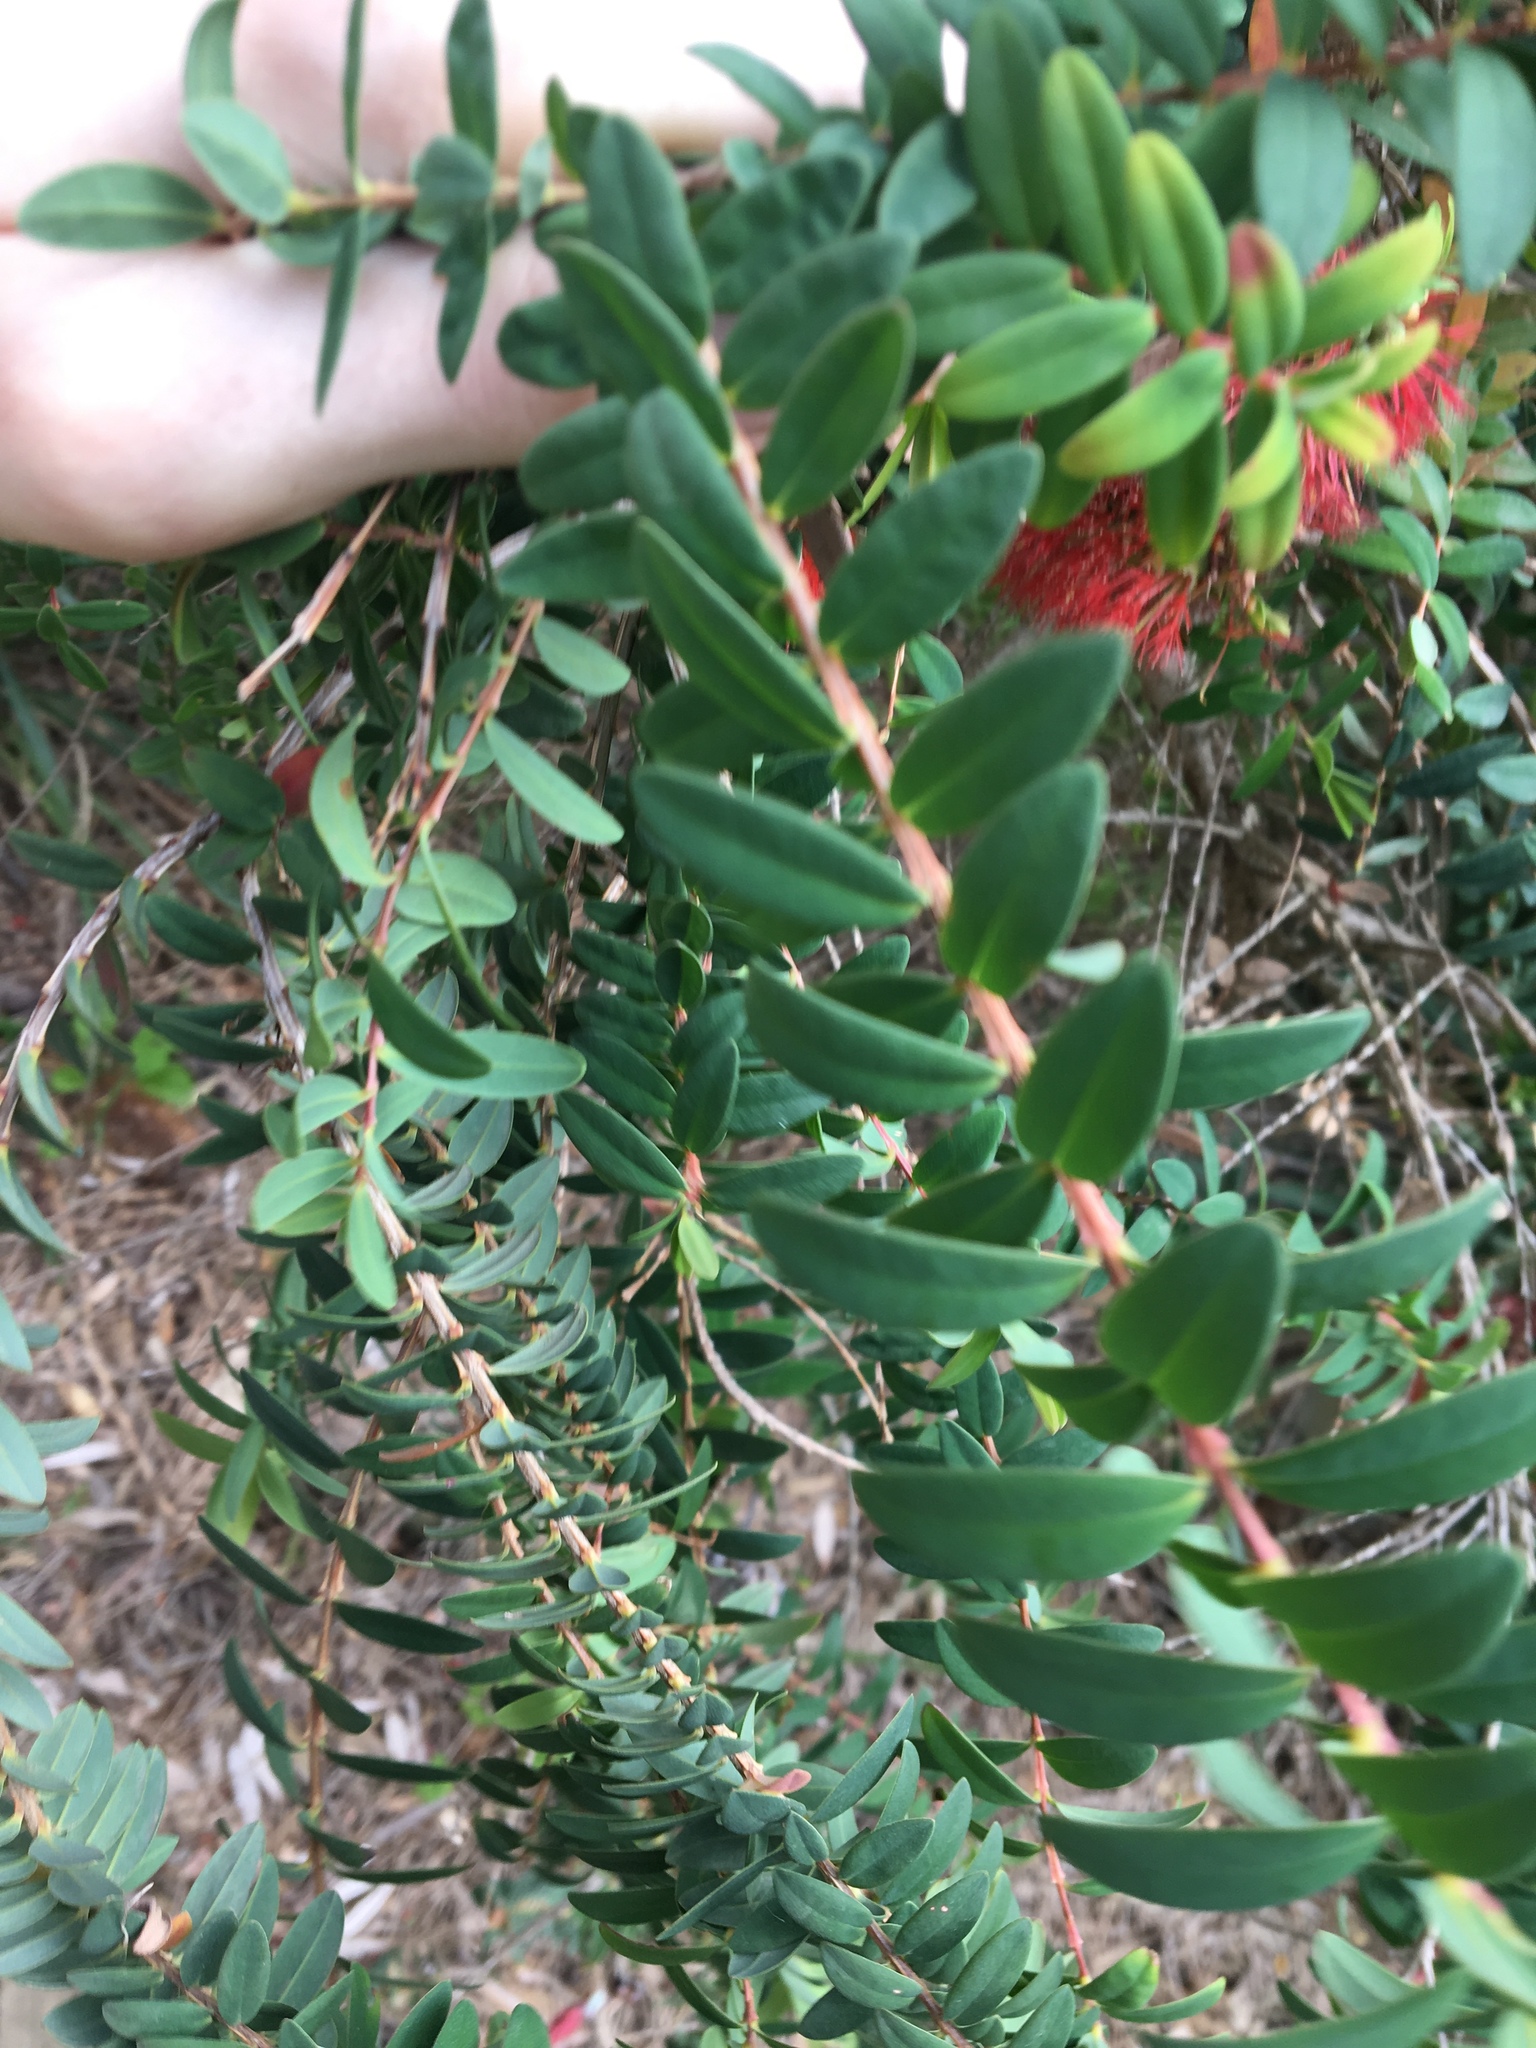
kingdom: Plantae
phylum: Tracheophyta
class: Magnoliopsida
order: Myrtales
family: Myrtaceae
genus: Melaleuca
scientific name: Melaleuca hypericifolia
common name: Red honey myrtle
